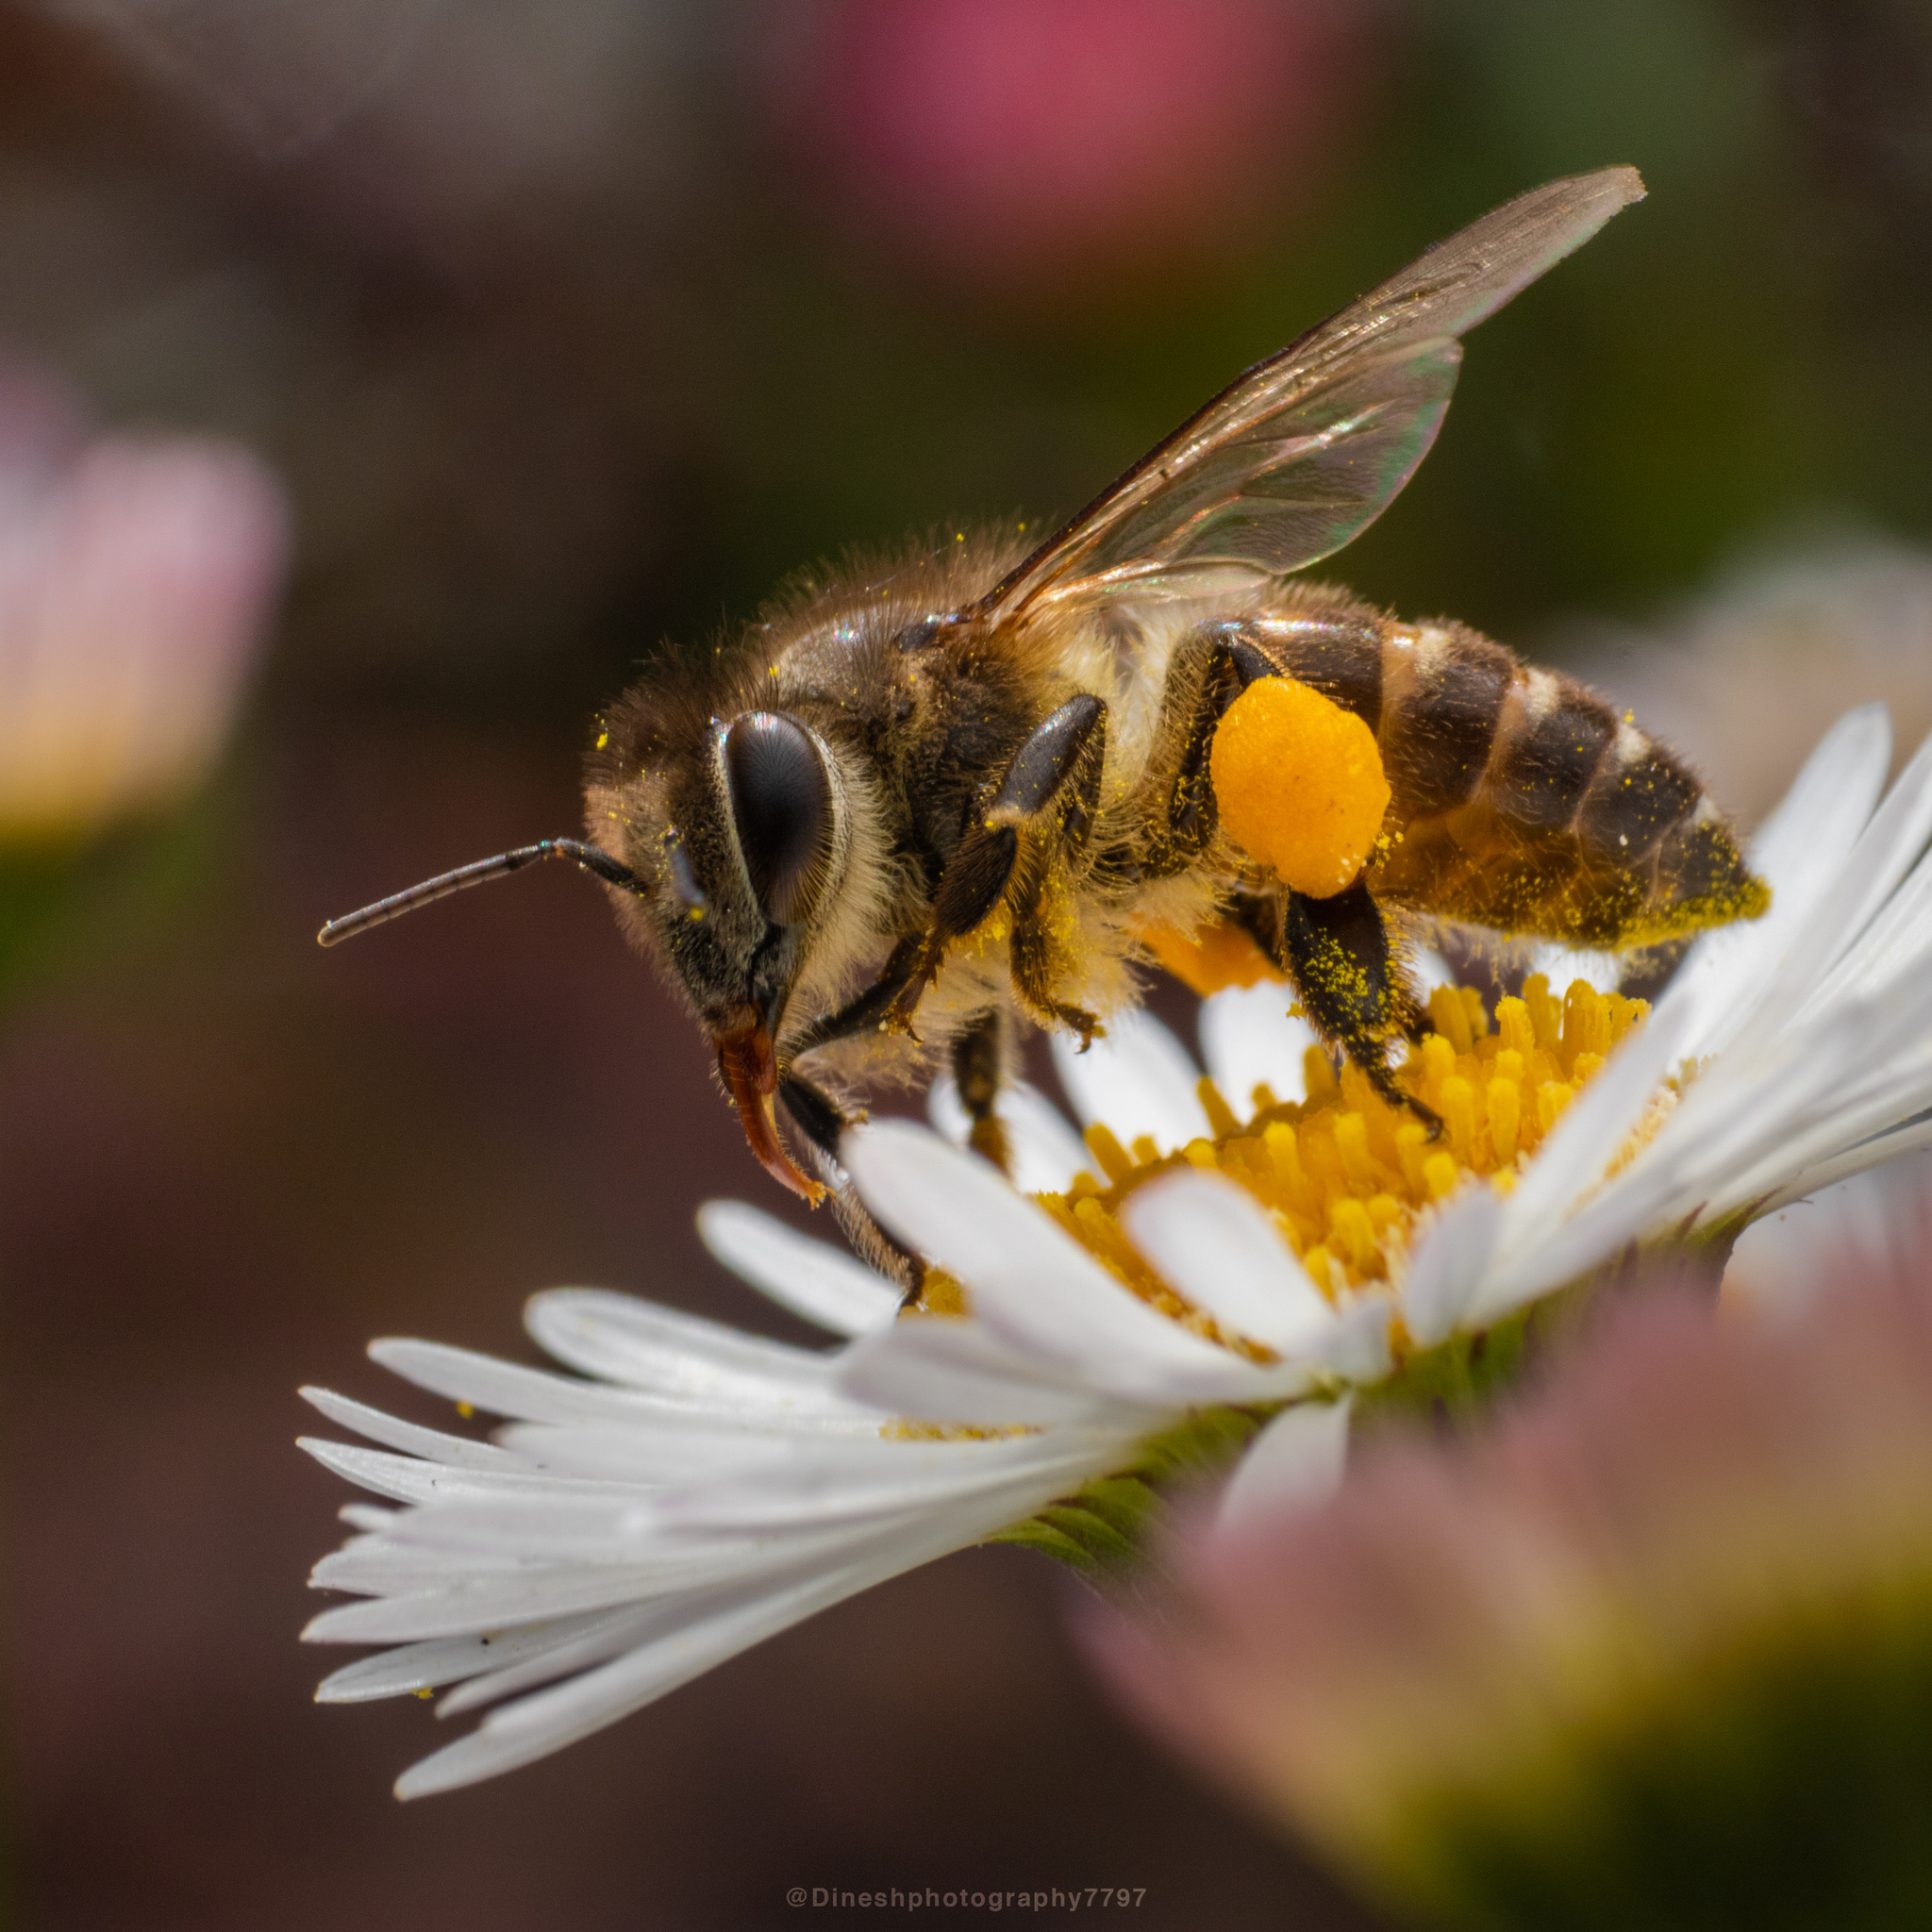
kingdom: Animalia
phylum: Arthropoda
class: Insecta
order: Hymenoptera
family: Apidae
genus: Apis
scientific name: Apis cerana
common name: Honey bee
